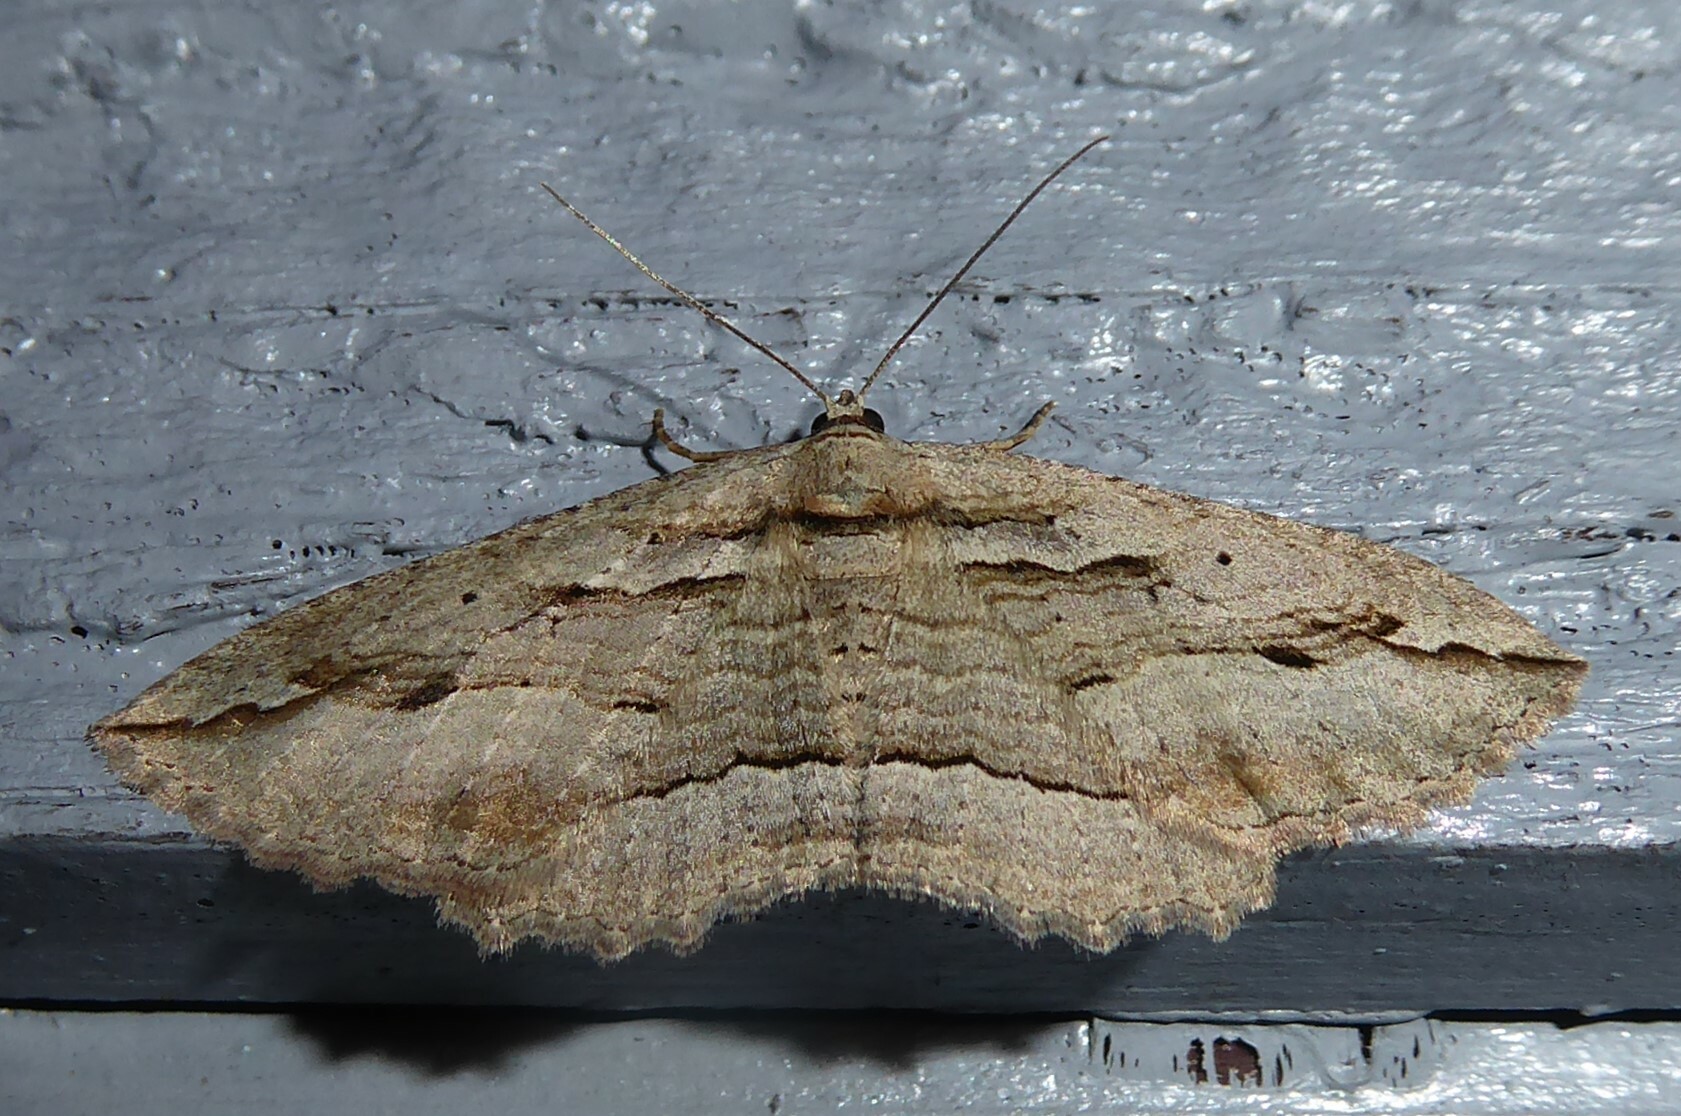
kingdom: Animalia
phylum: Arthropoda
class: Insecta
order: Lepidoptera
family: Geometridae
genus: Austrocidaria
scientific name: Austrocidaria gobiata
